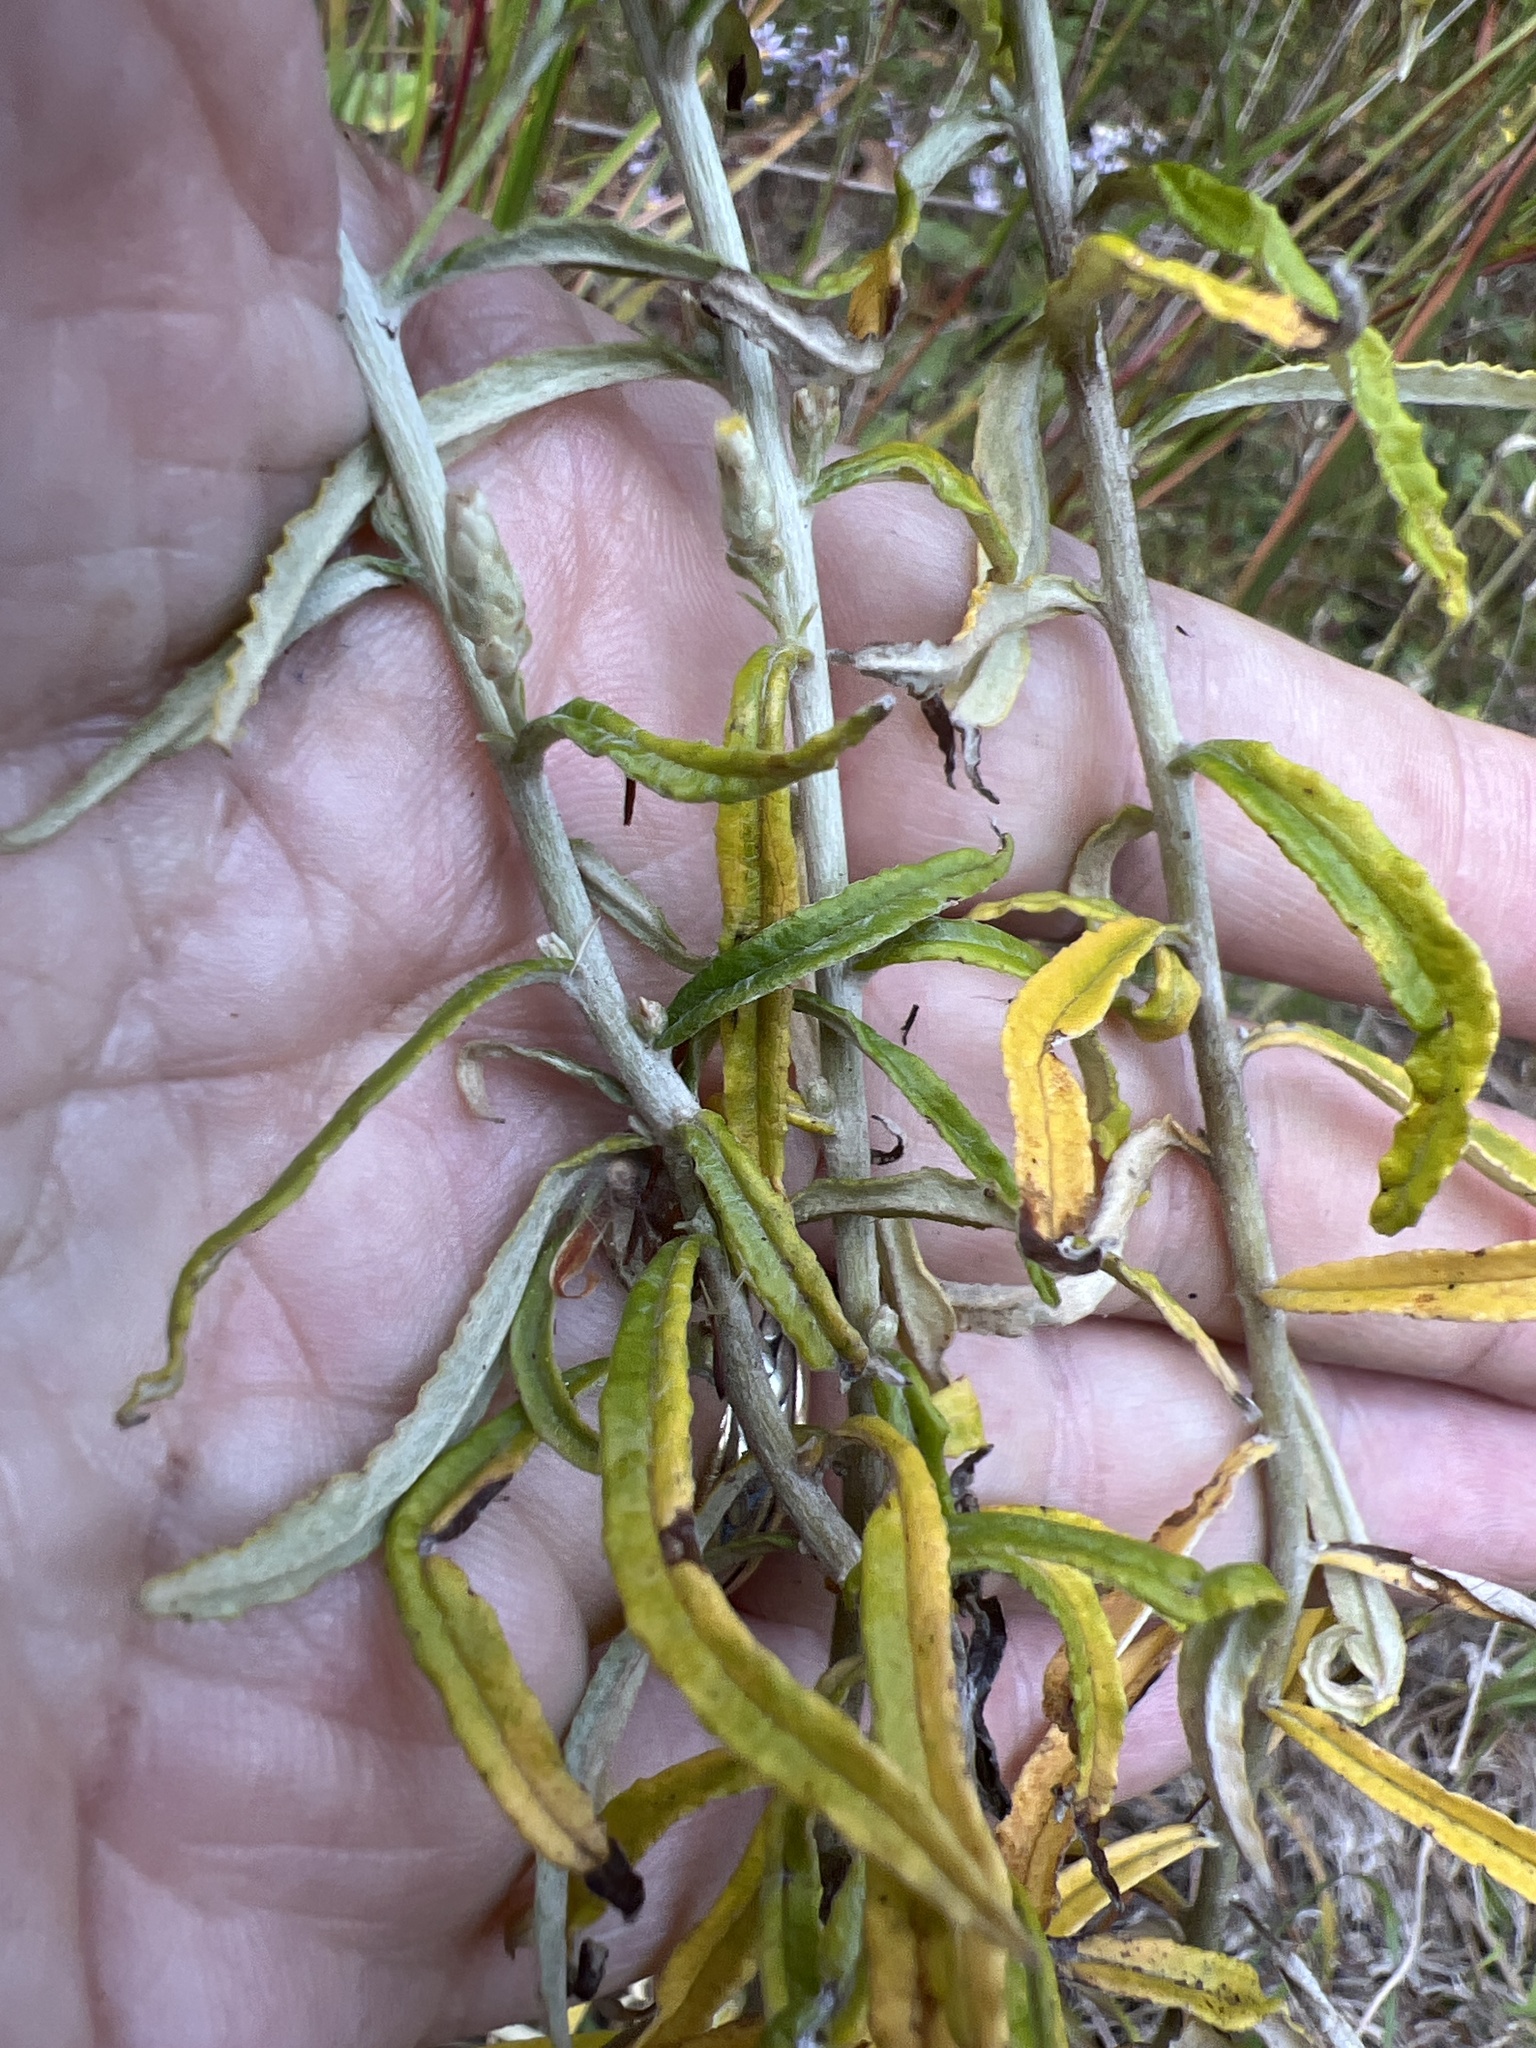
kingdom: Plantae
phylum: Tracheophyta
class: Magnoliopsida
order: Asterales
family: Asteraceae
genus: Pseudognaphalium
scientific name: Pseudognaphalium obtusifolium
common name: Eastern rabbit-tobacco
